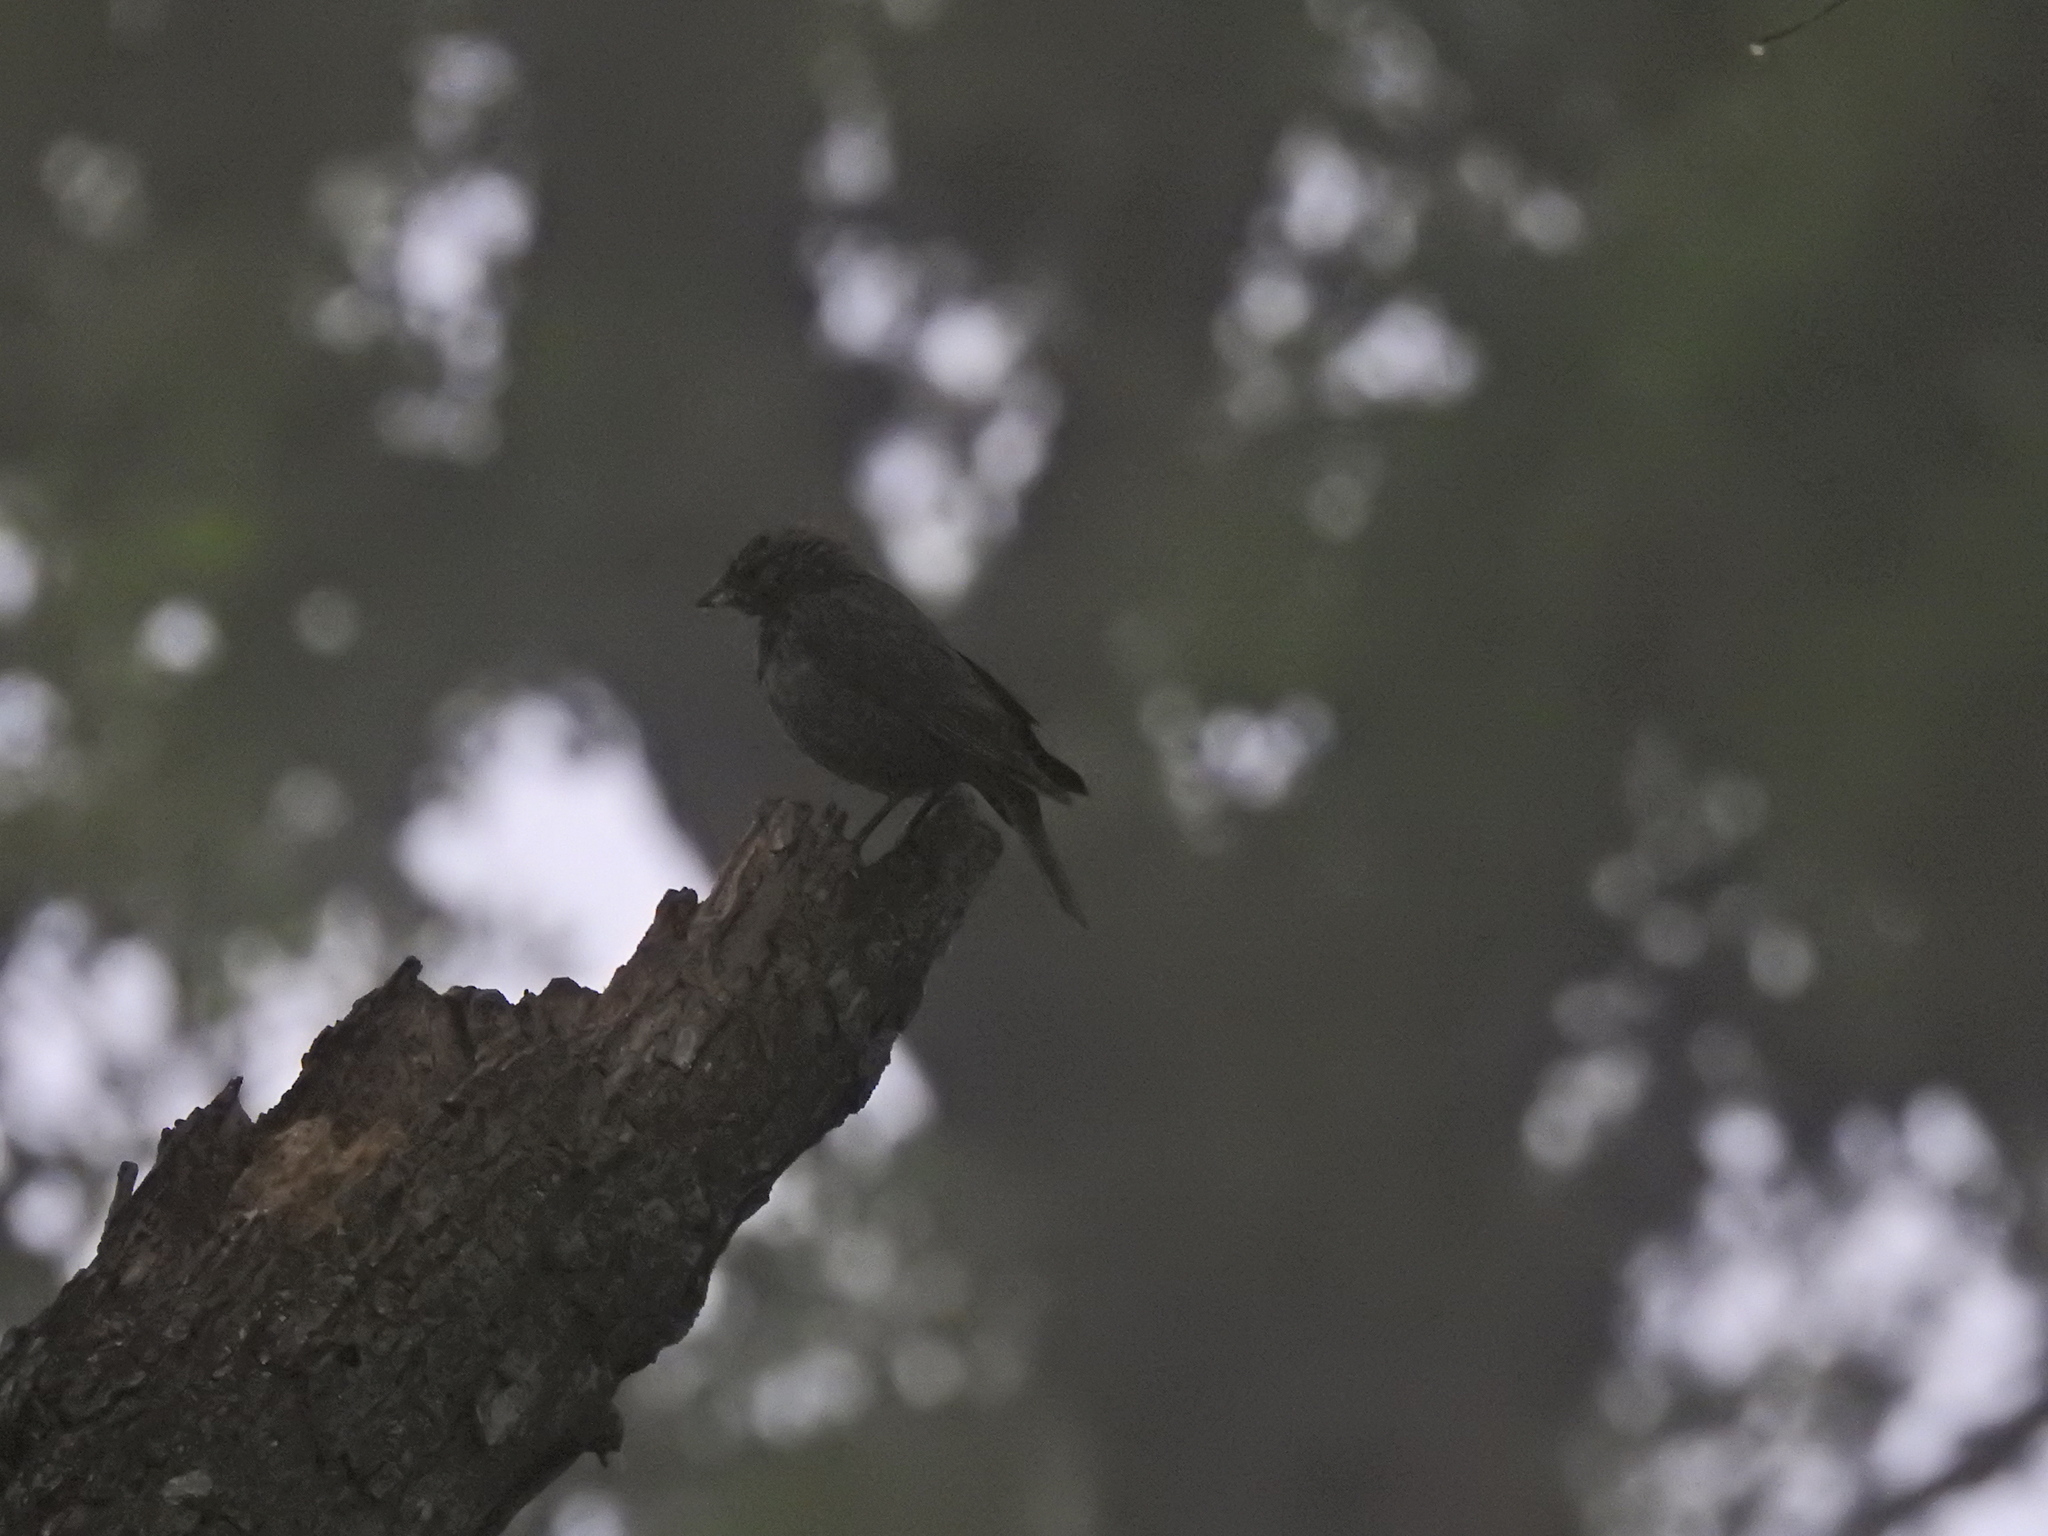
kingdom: Animalia
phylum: Chordata
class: Aves
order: Passeriformes
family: Icteridae
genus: Molothrus
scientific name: Molothrus ater
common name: Brown-headed cowbird
